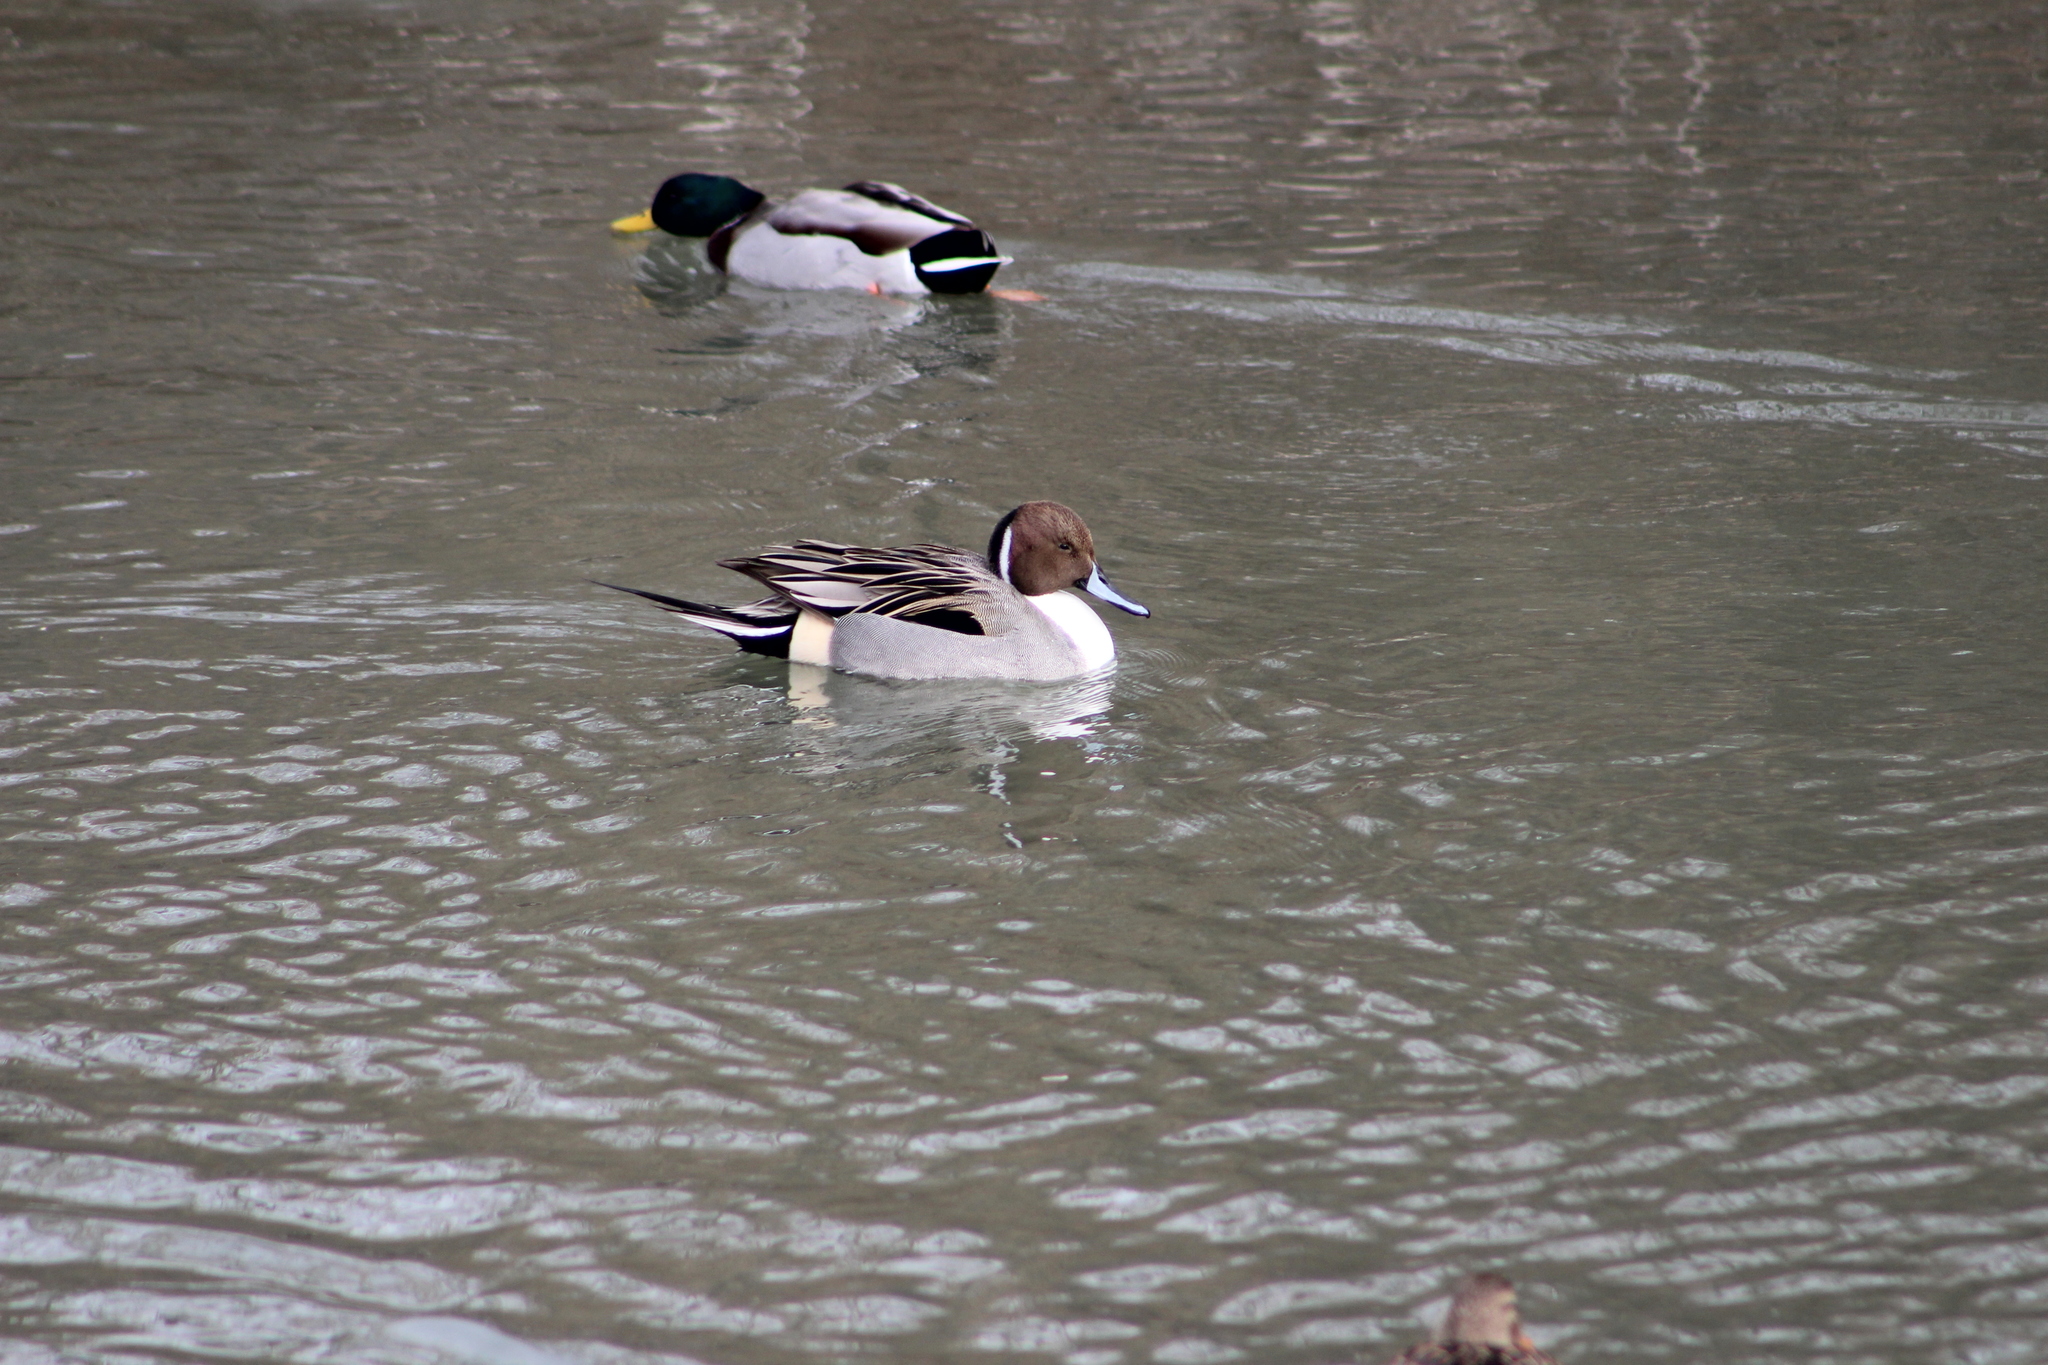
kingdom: Animalia
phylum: Chordata
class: Aves
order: Anseriformes
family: Anatidae
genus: Anas
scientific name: Anas acuta
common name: Northern pintail
